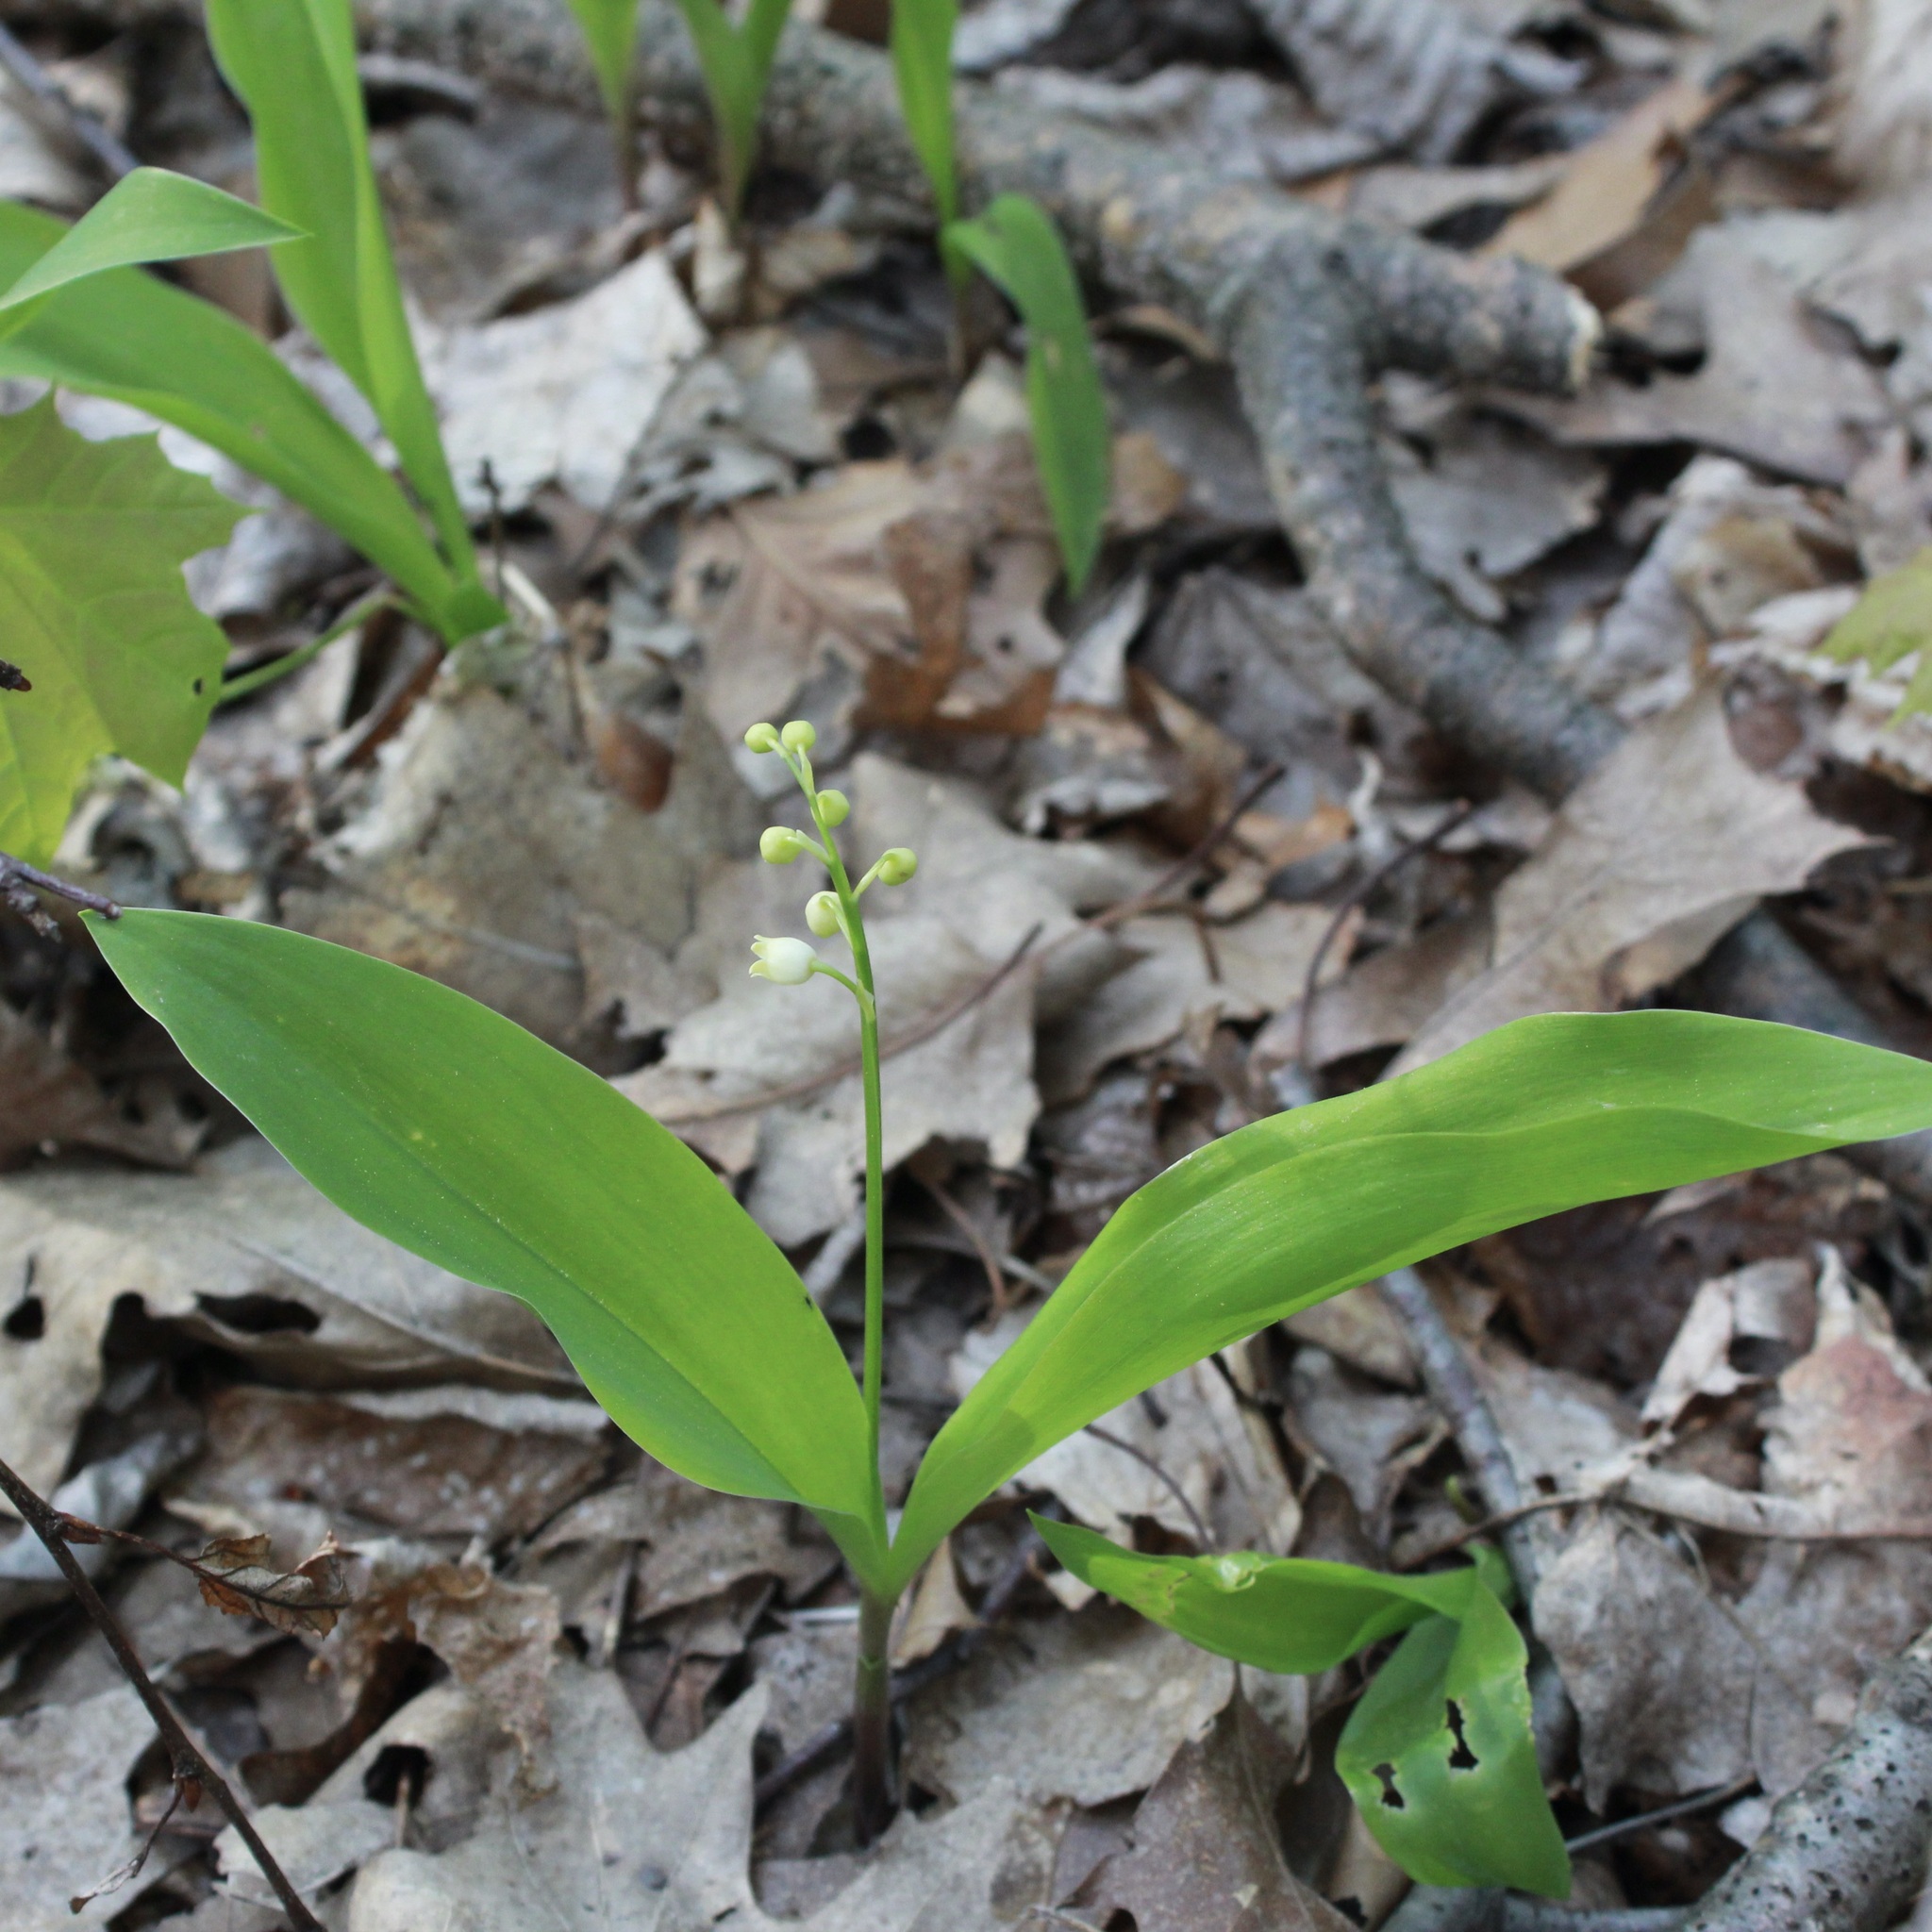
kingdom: Plantae
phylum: Tracheophyta
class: Liliopsida
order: Asparagales
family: Asparagaceae
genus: Convallaria
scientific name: Convallaria majalis
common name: Lily-of-the-valley
